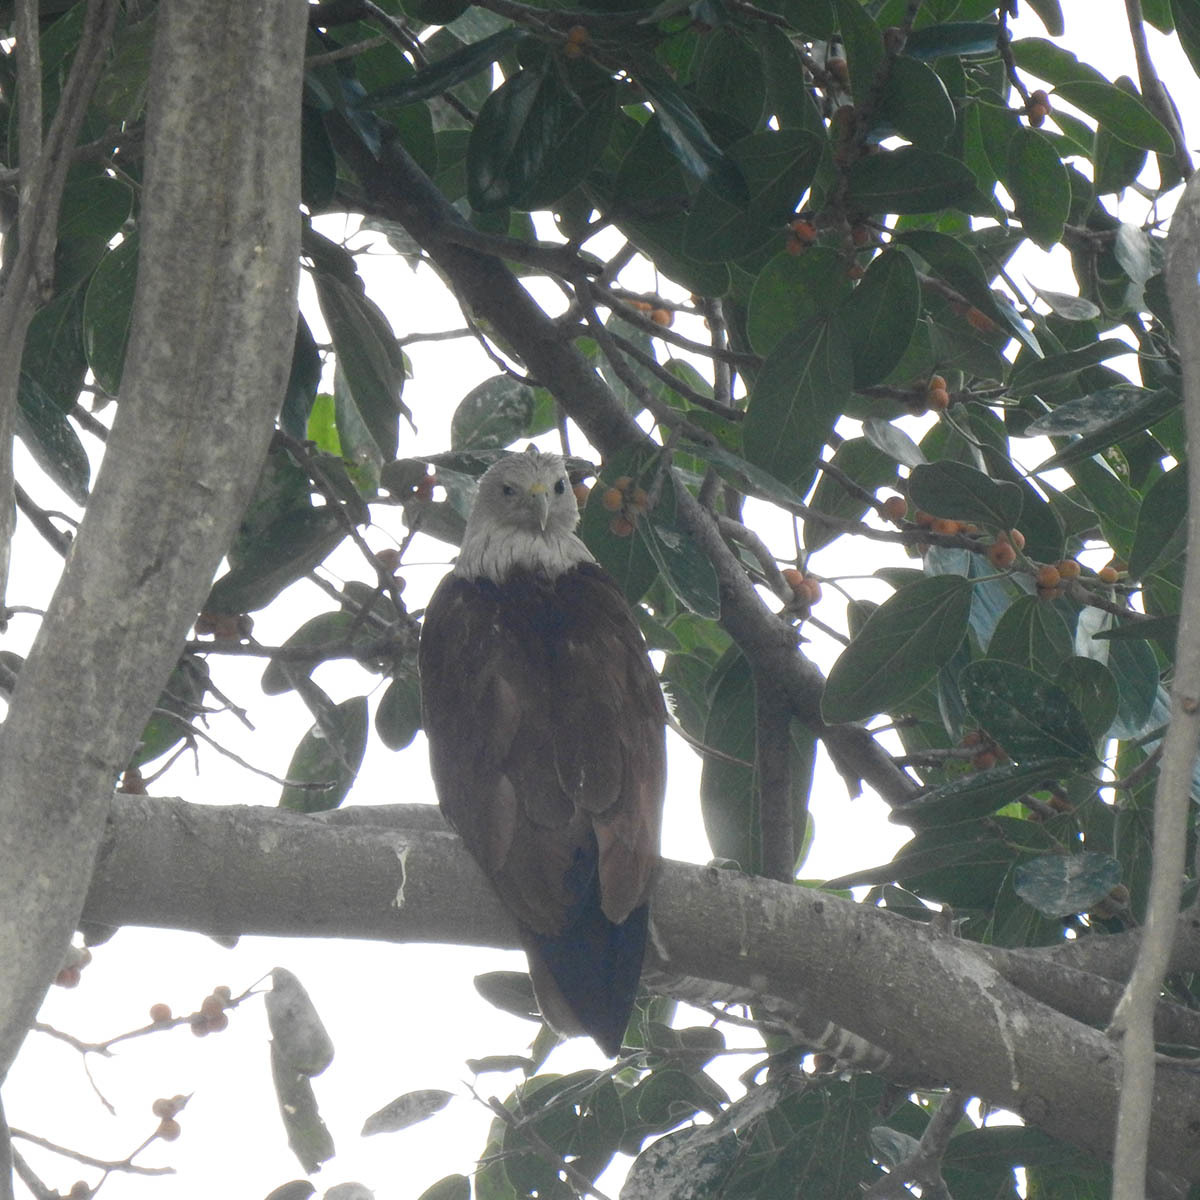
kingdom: Animalia
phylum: Chordata
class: Aves
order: Accipitriformes
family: Accipitridae
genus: Haliastur
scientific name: Haliastur indus
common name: Brahminy kite
